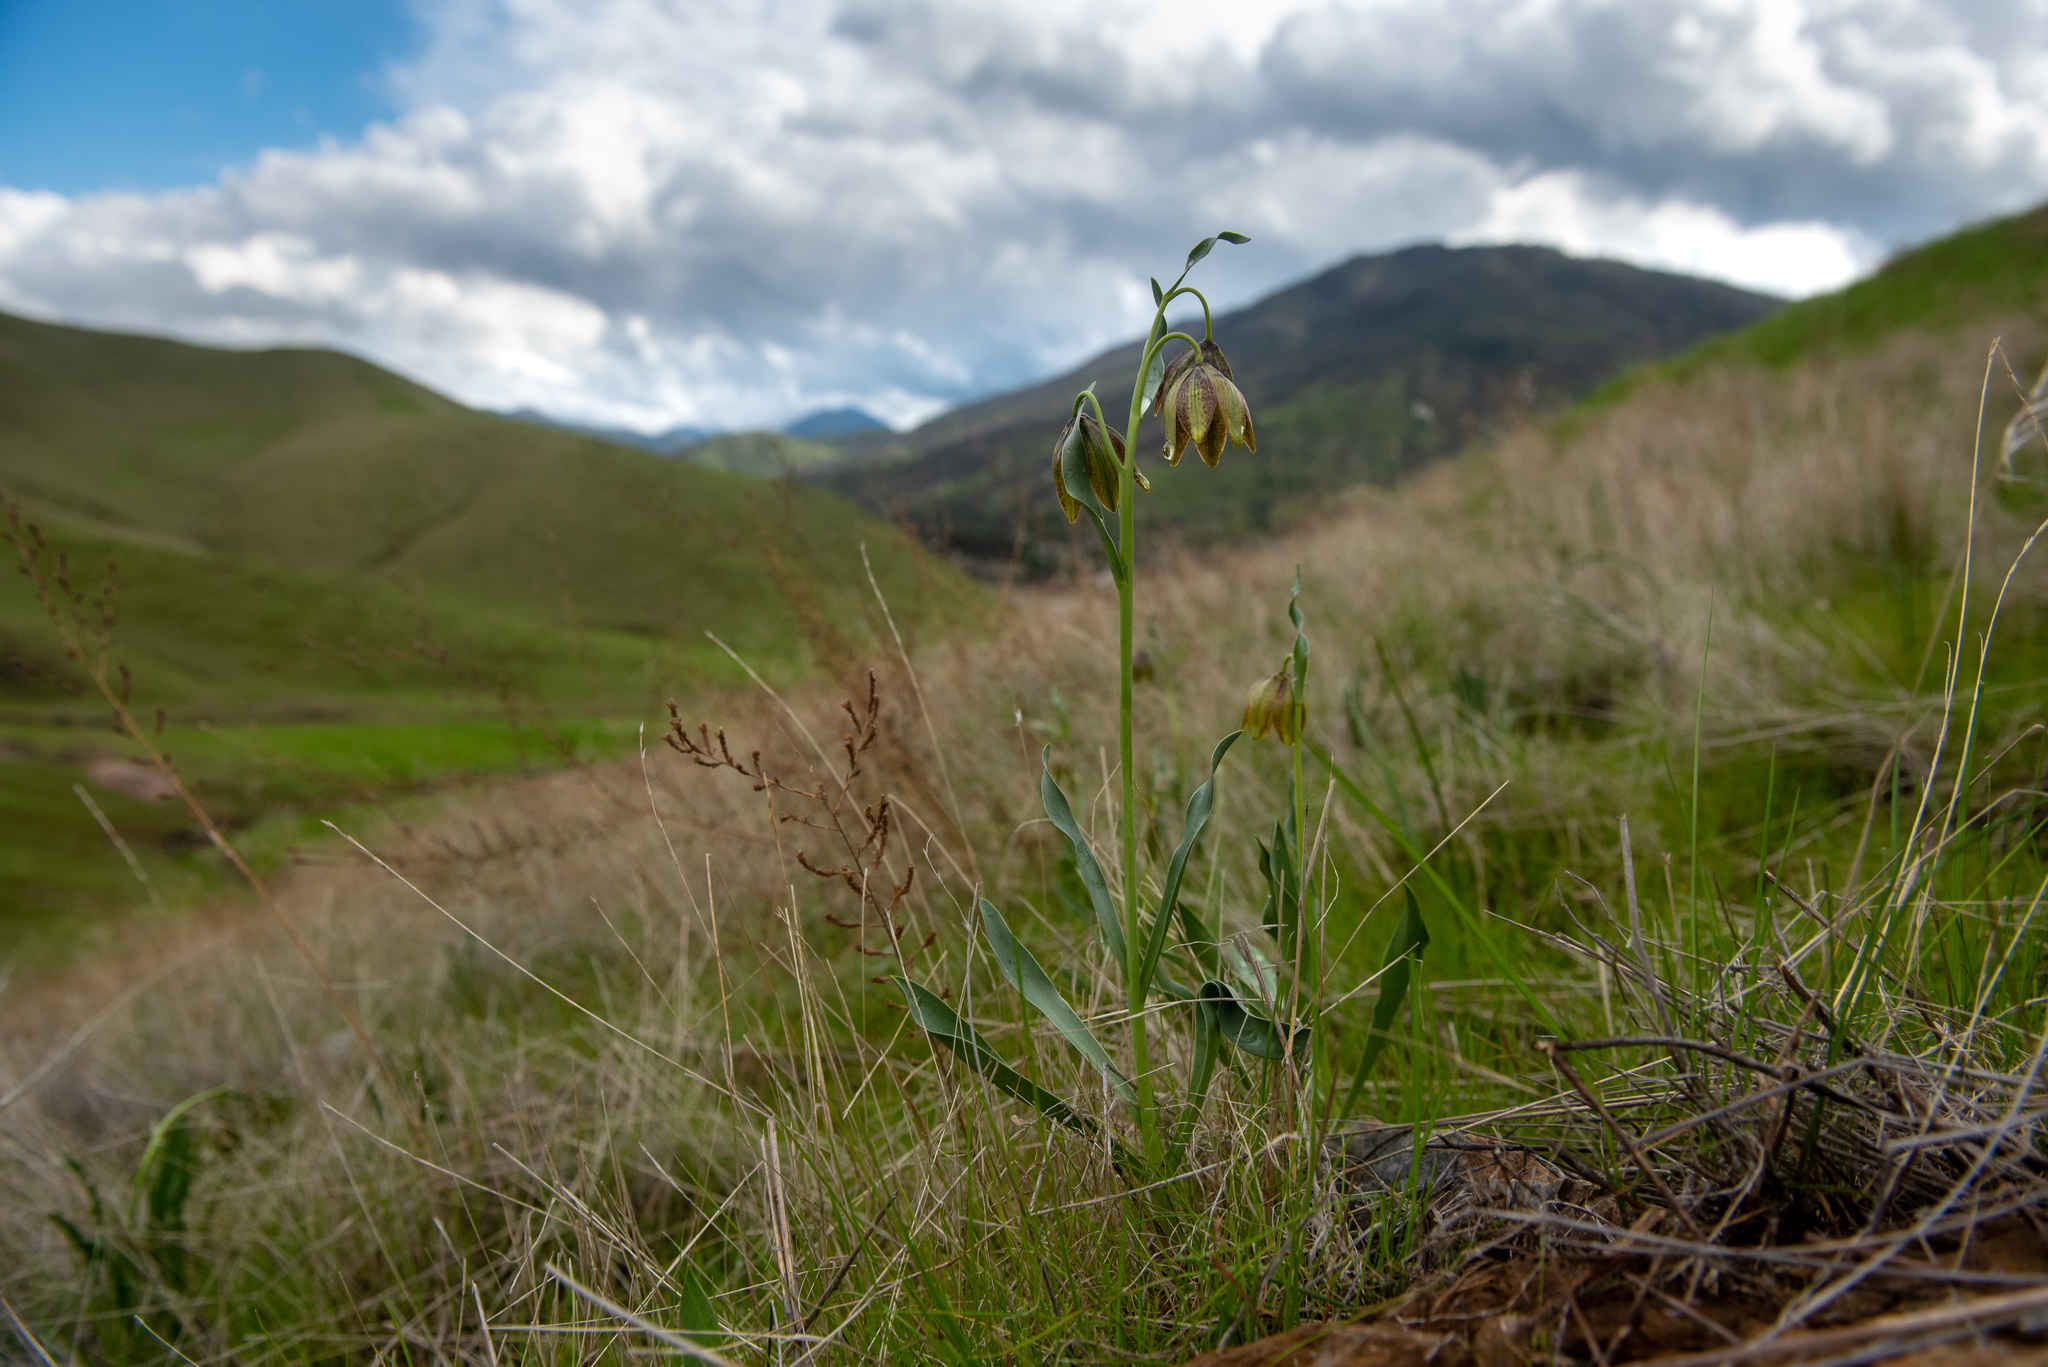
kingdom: Plantae
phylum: Tracheophyta
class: Liliopsida
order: Liliales
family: Liliaceae
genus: Fritillaria
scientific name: Fritillaria agrestis
